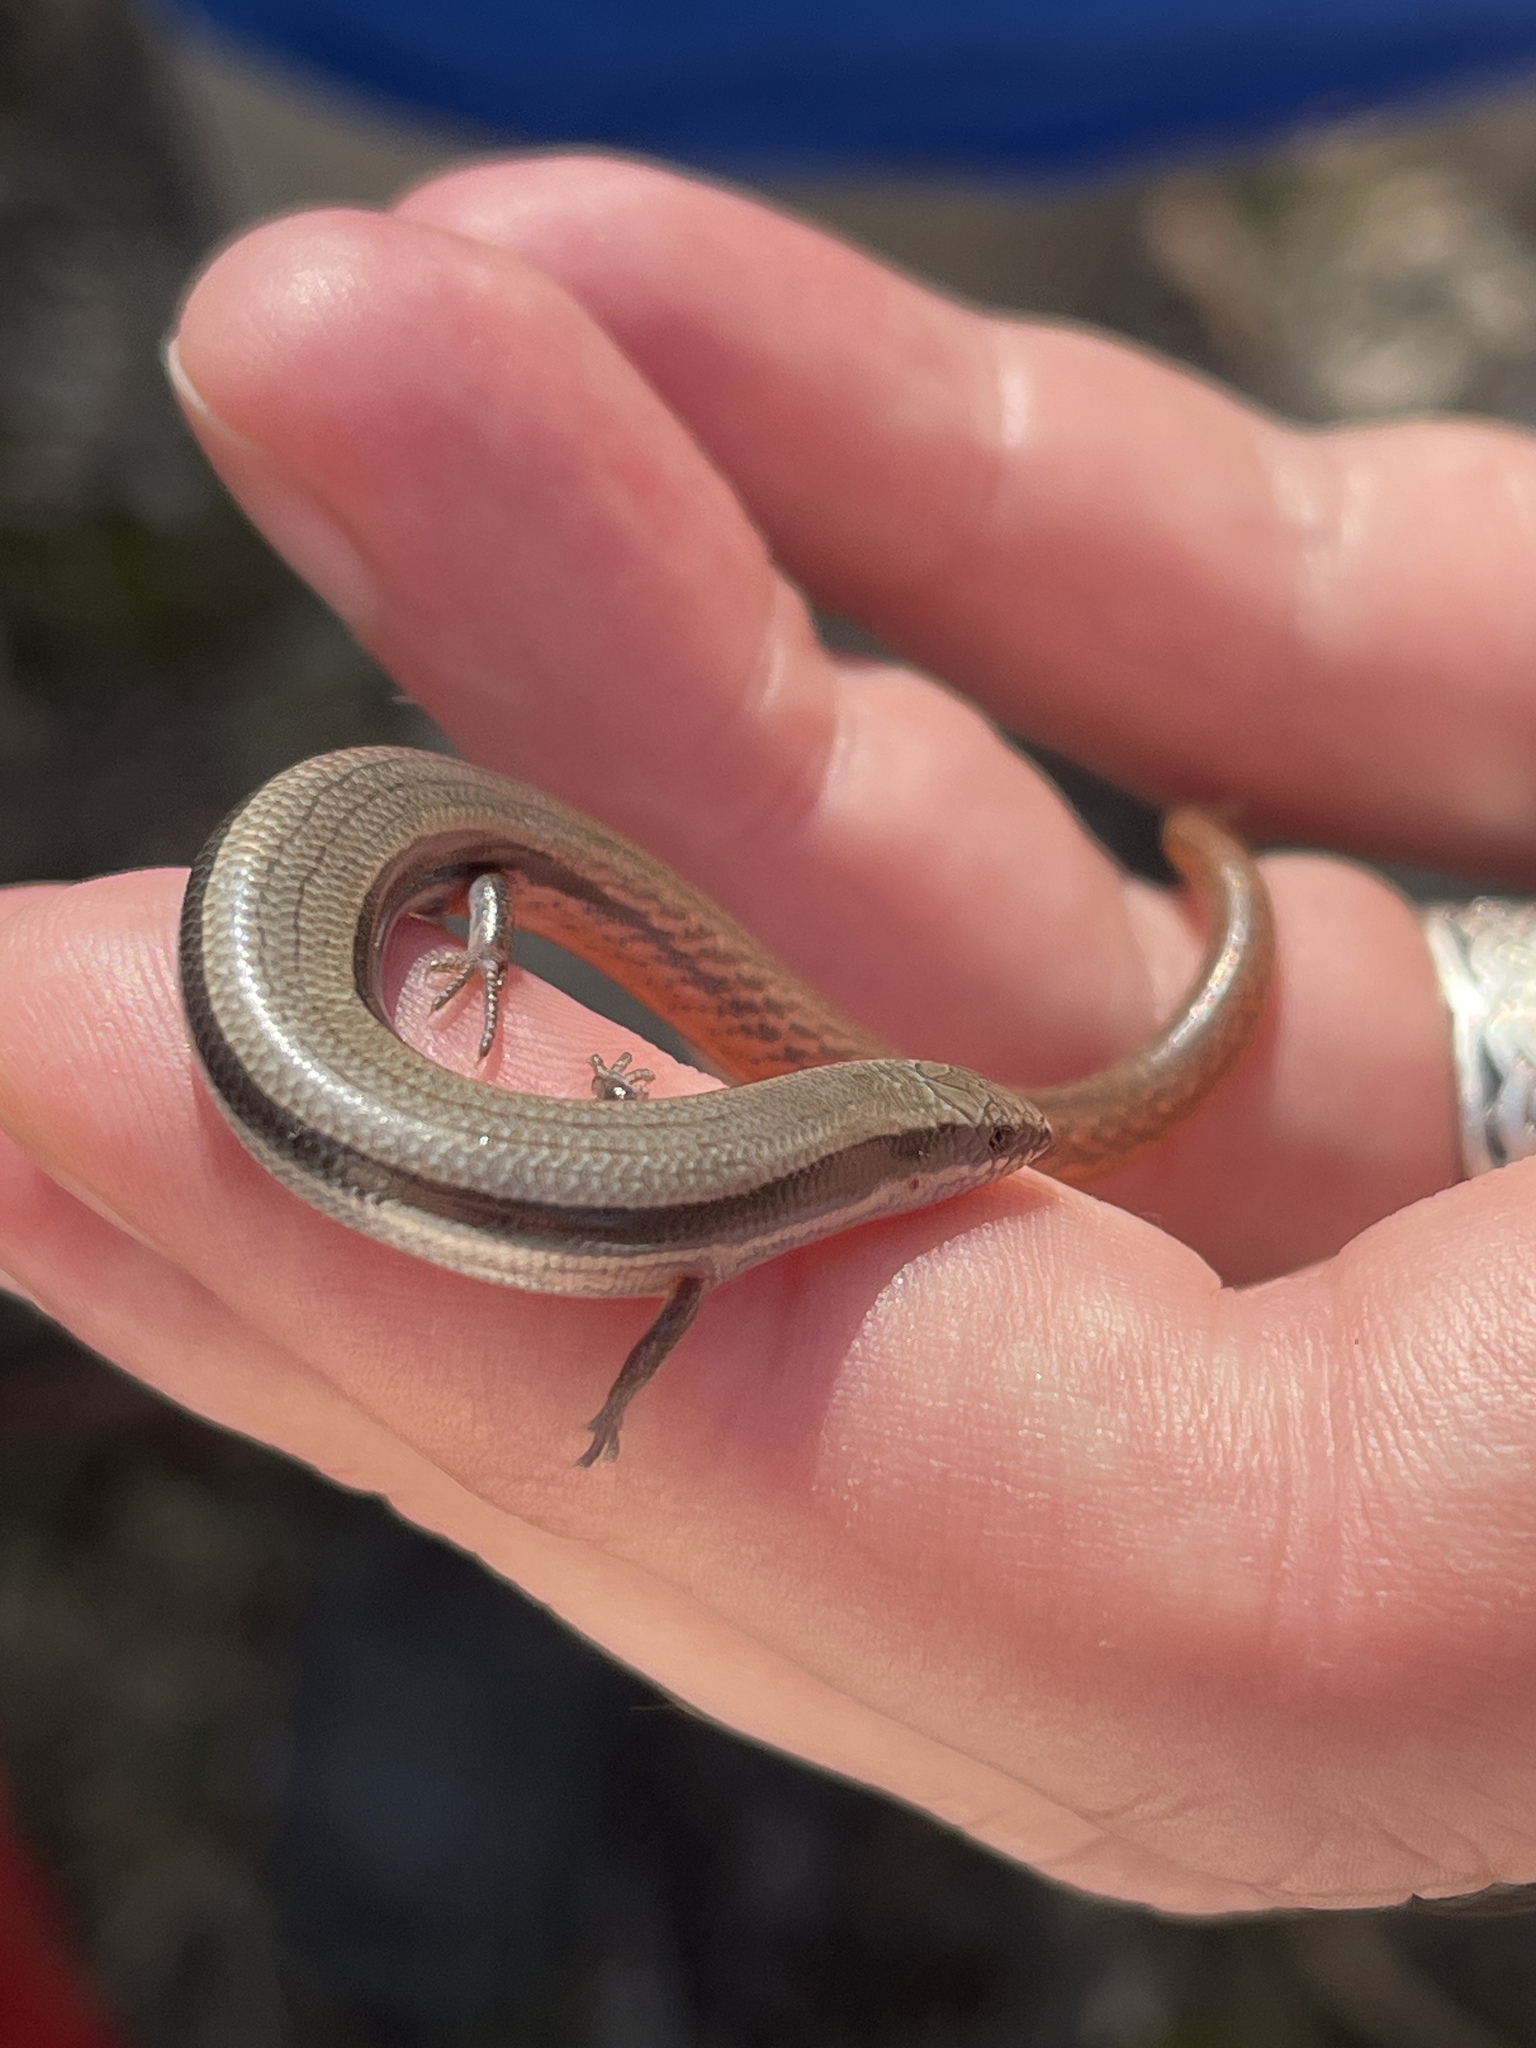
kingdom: Animalia
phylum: Chordata
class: Squamata
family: Scincidae
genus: Lerista
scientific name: Lerista bougainvillii
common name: South-eastern slider
